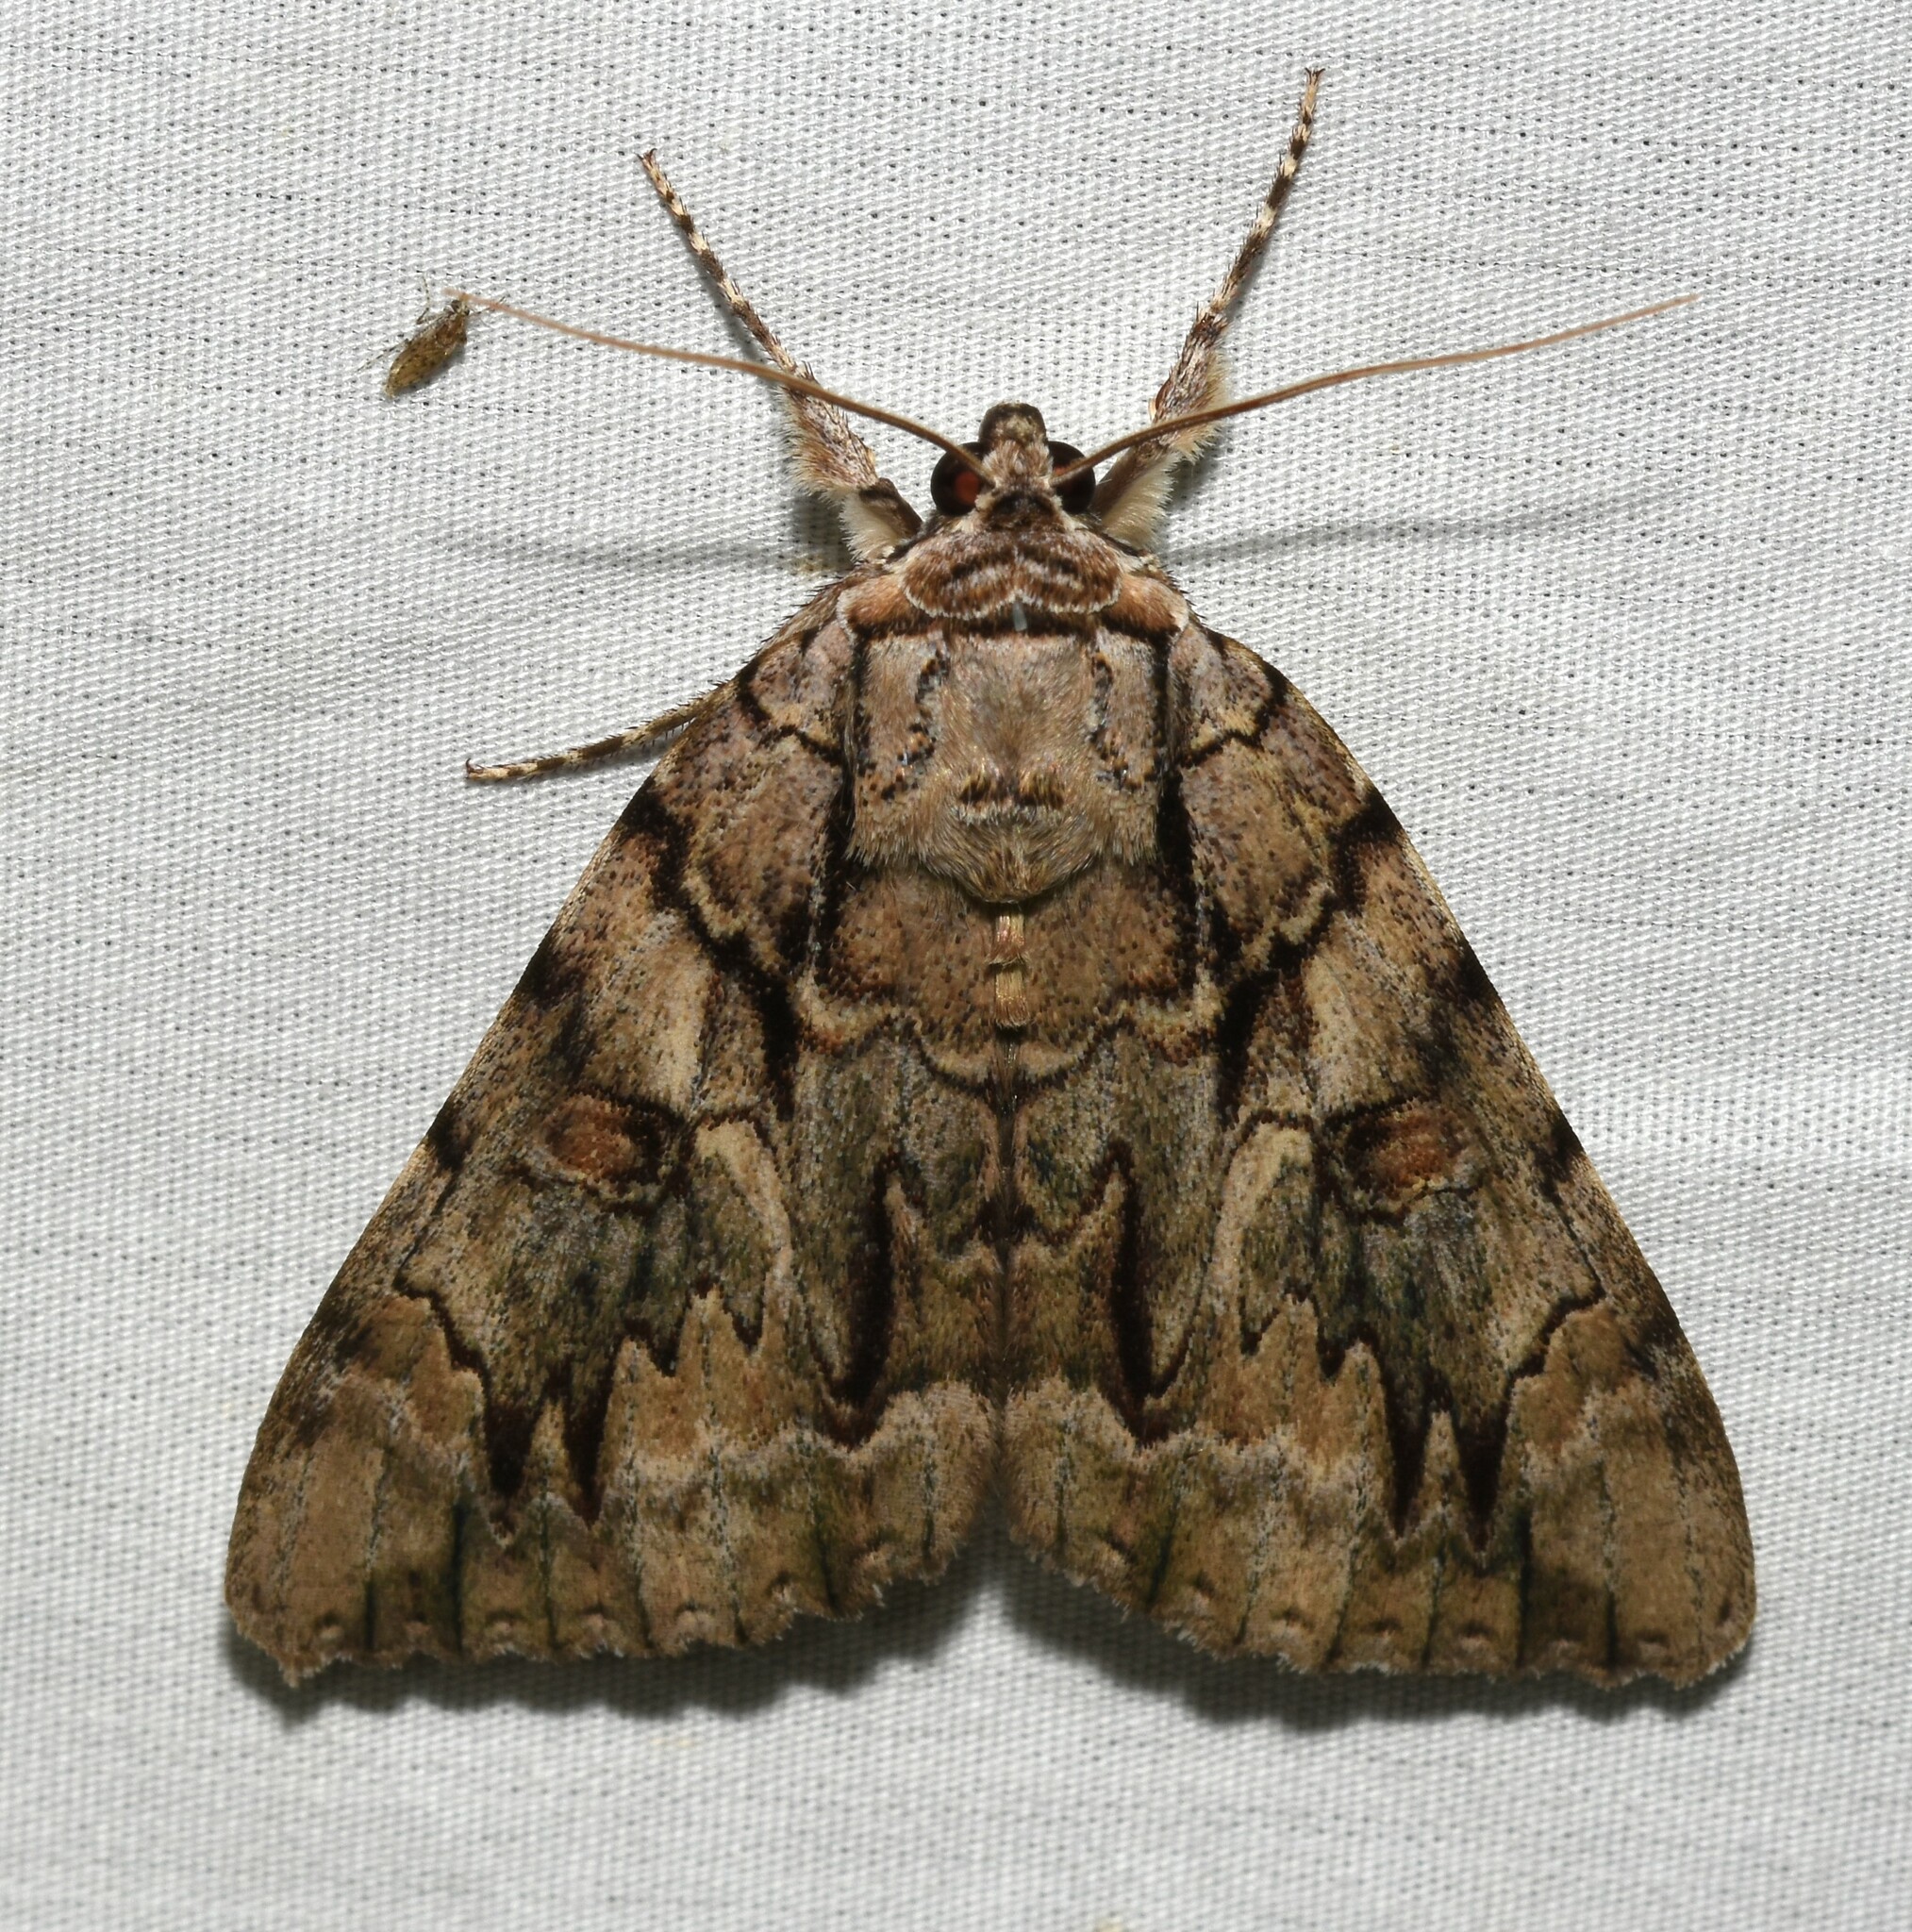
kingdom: Animalia
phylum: Arthropoda
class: Insecta
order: Lepidoptera
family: Erebidae
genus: Catocala
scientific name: Catocala luctuosa
